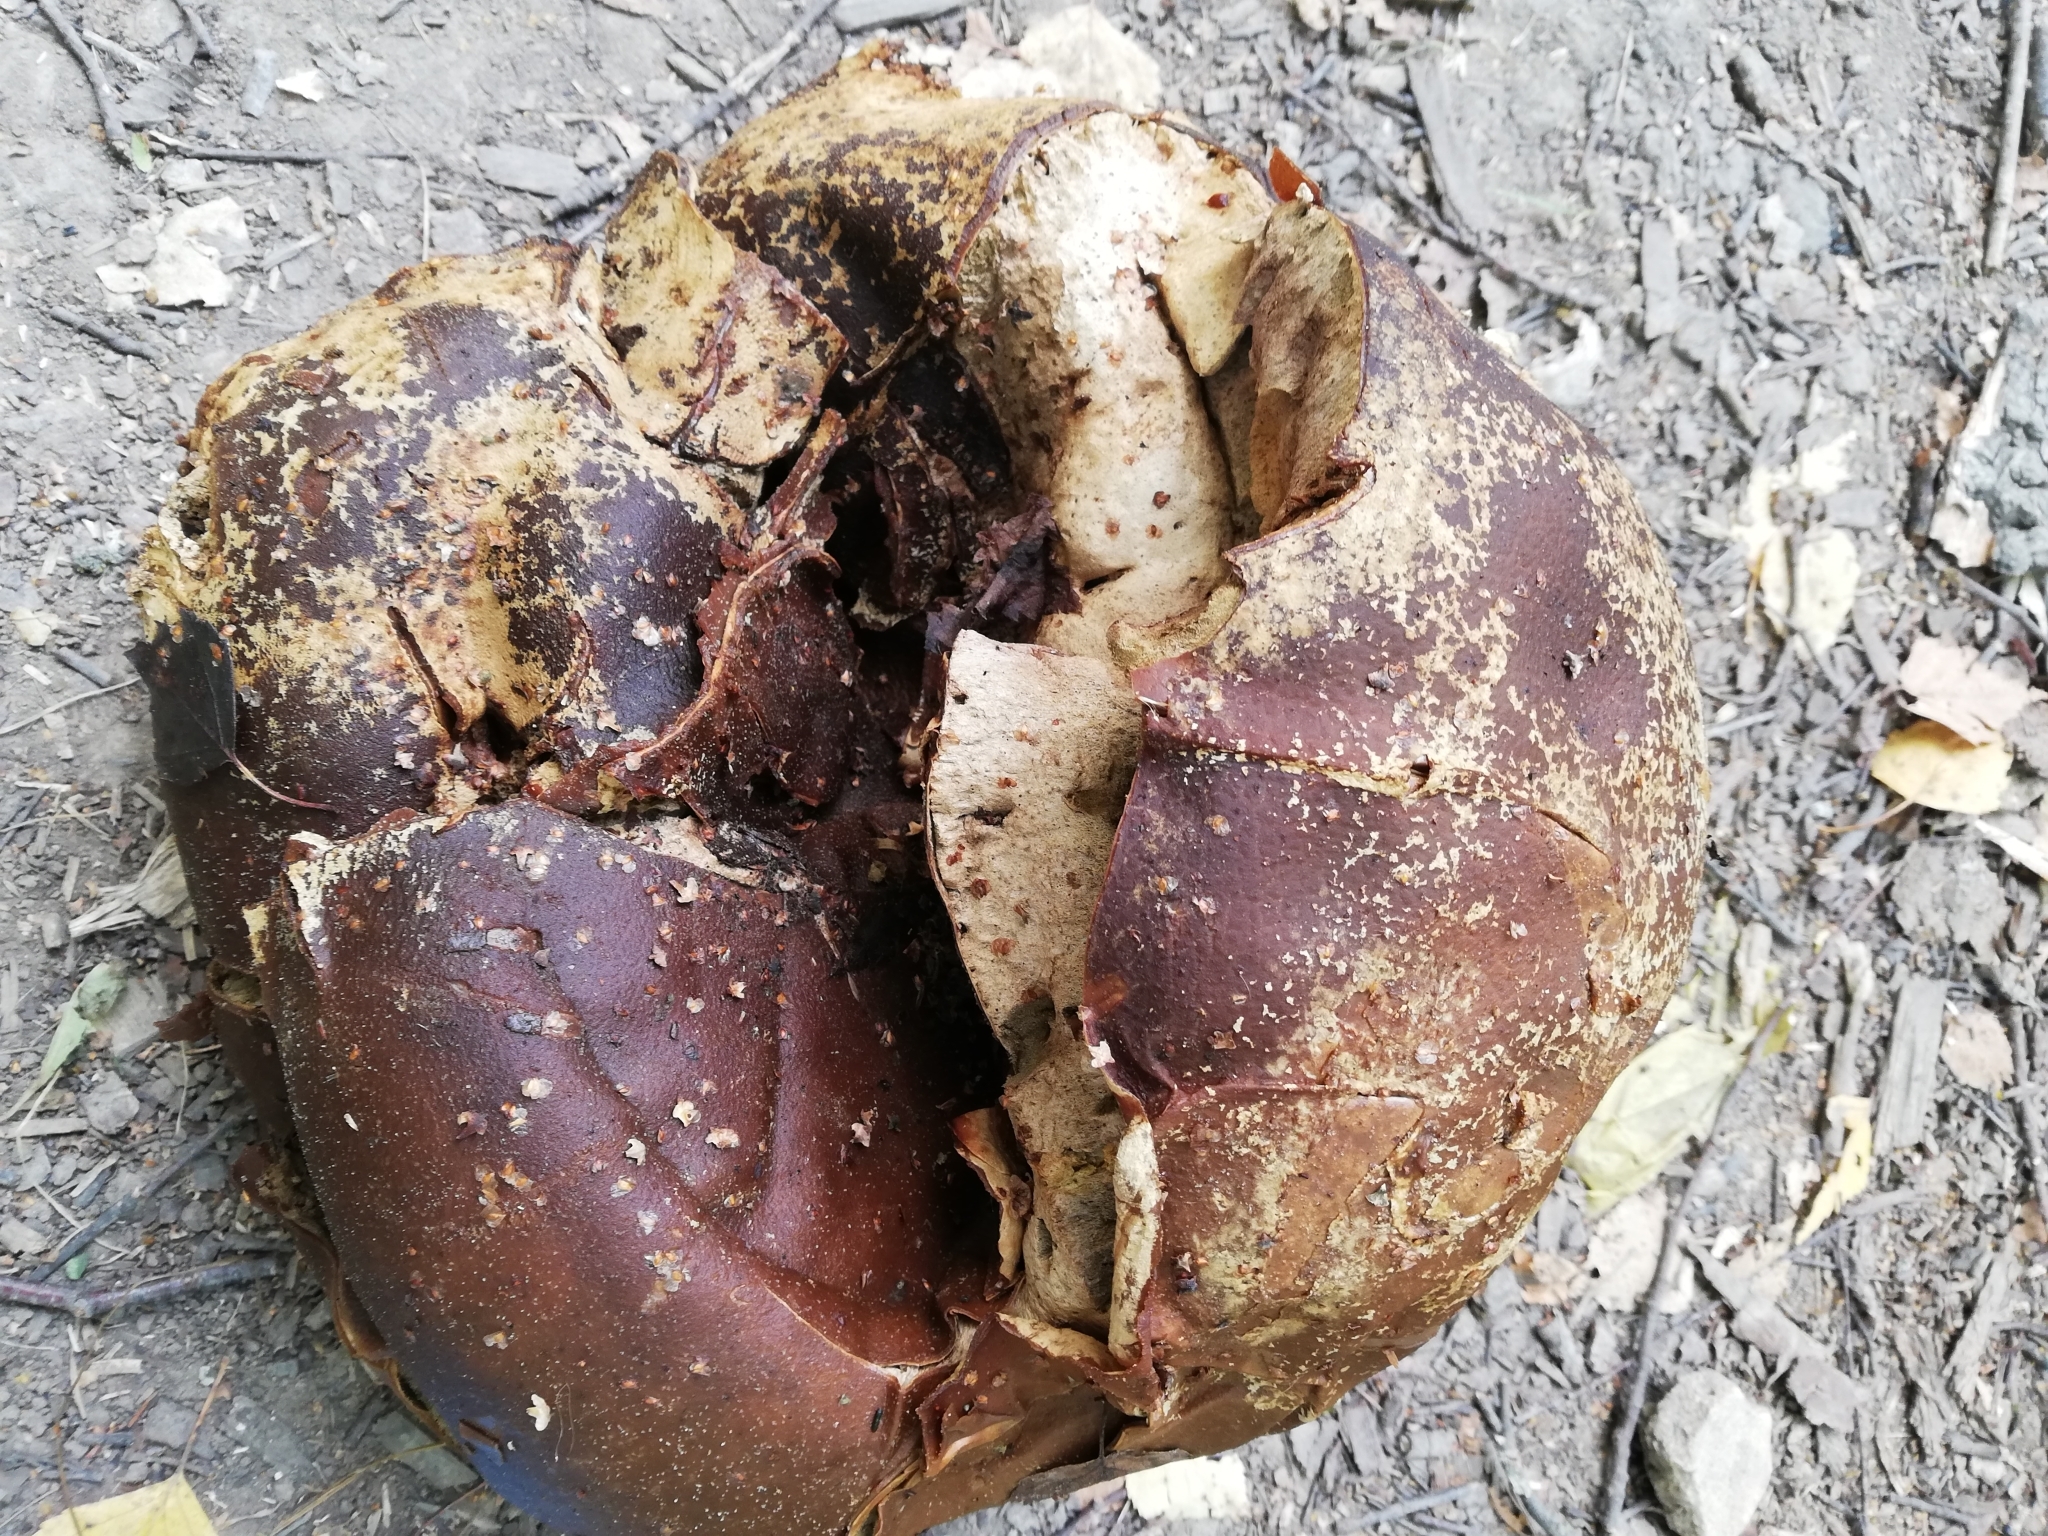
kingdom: Fungi
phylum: Basidiomycota
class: Agaricomycetes
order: Agaricales
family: Lycoperdaceae
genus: Calvatia
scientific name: Calvatia gigantea
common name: Giant puffball
